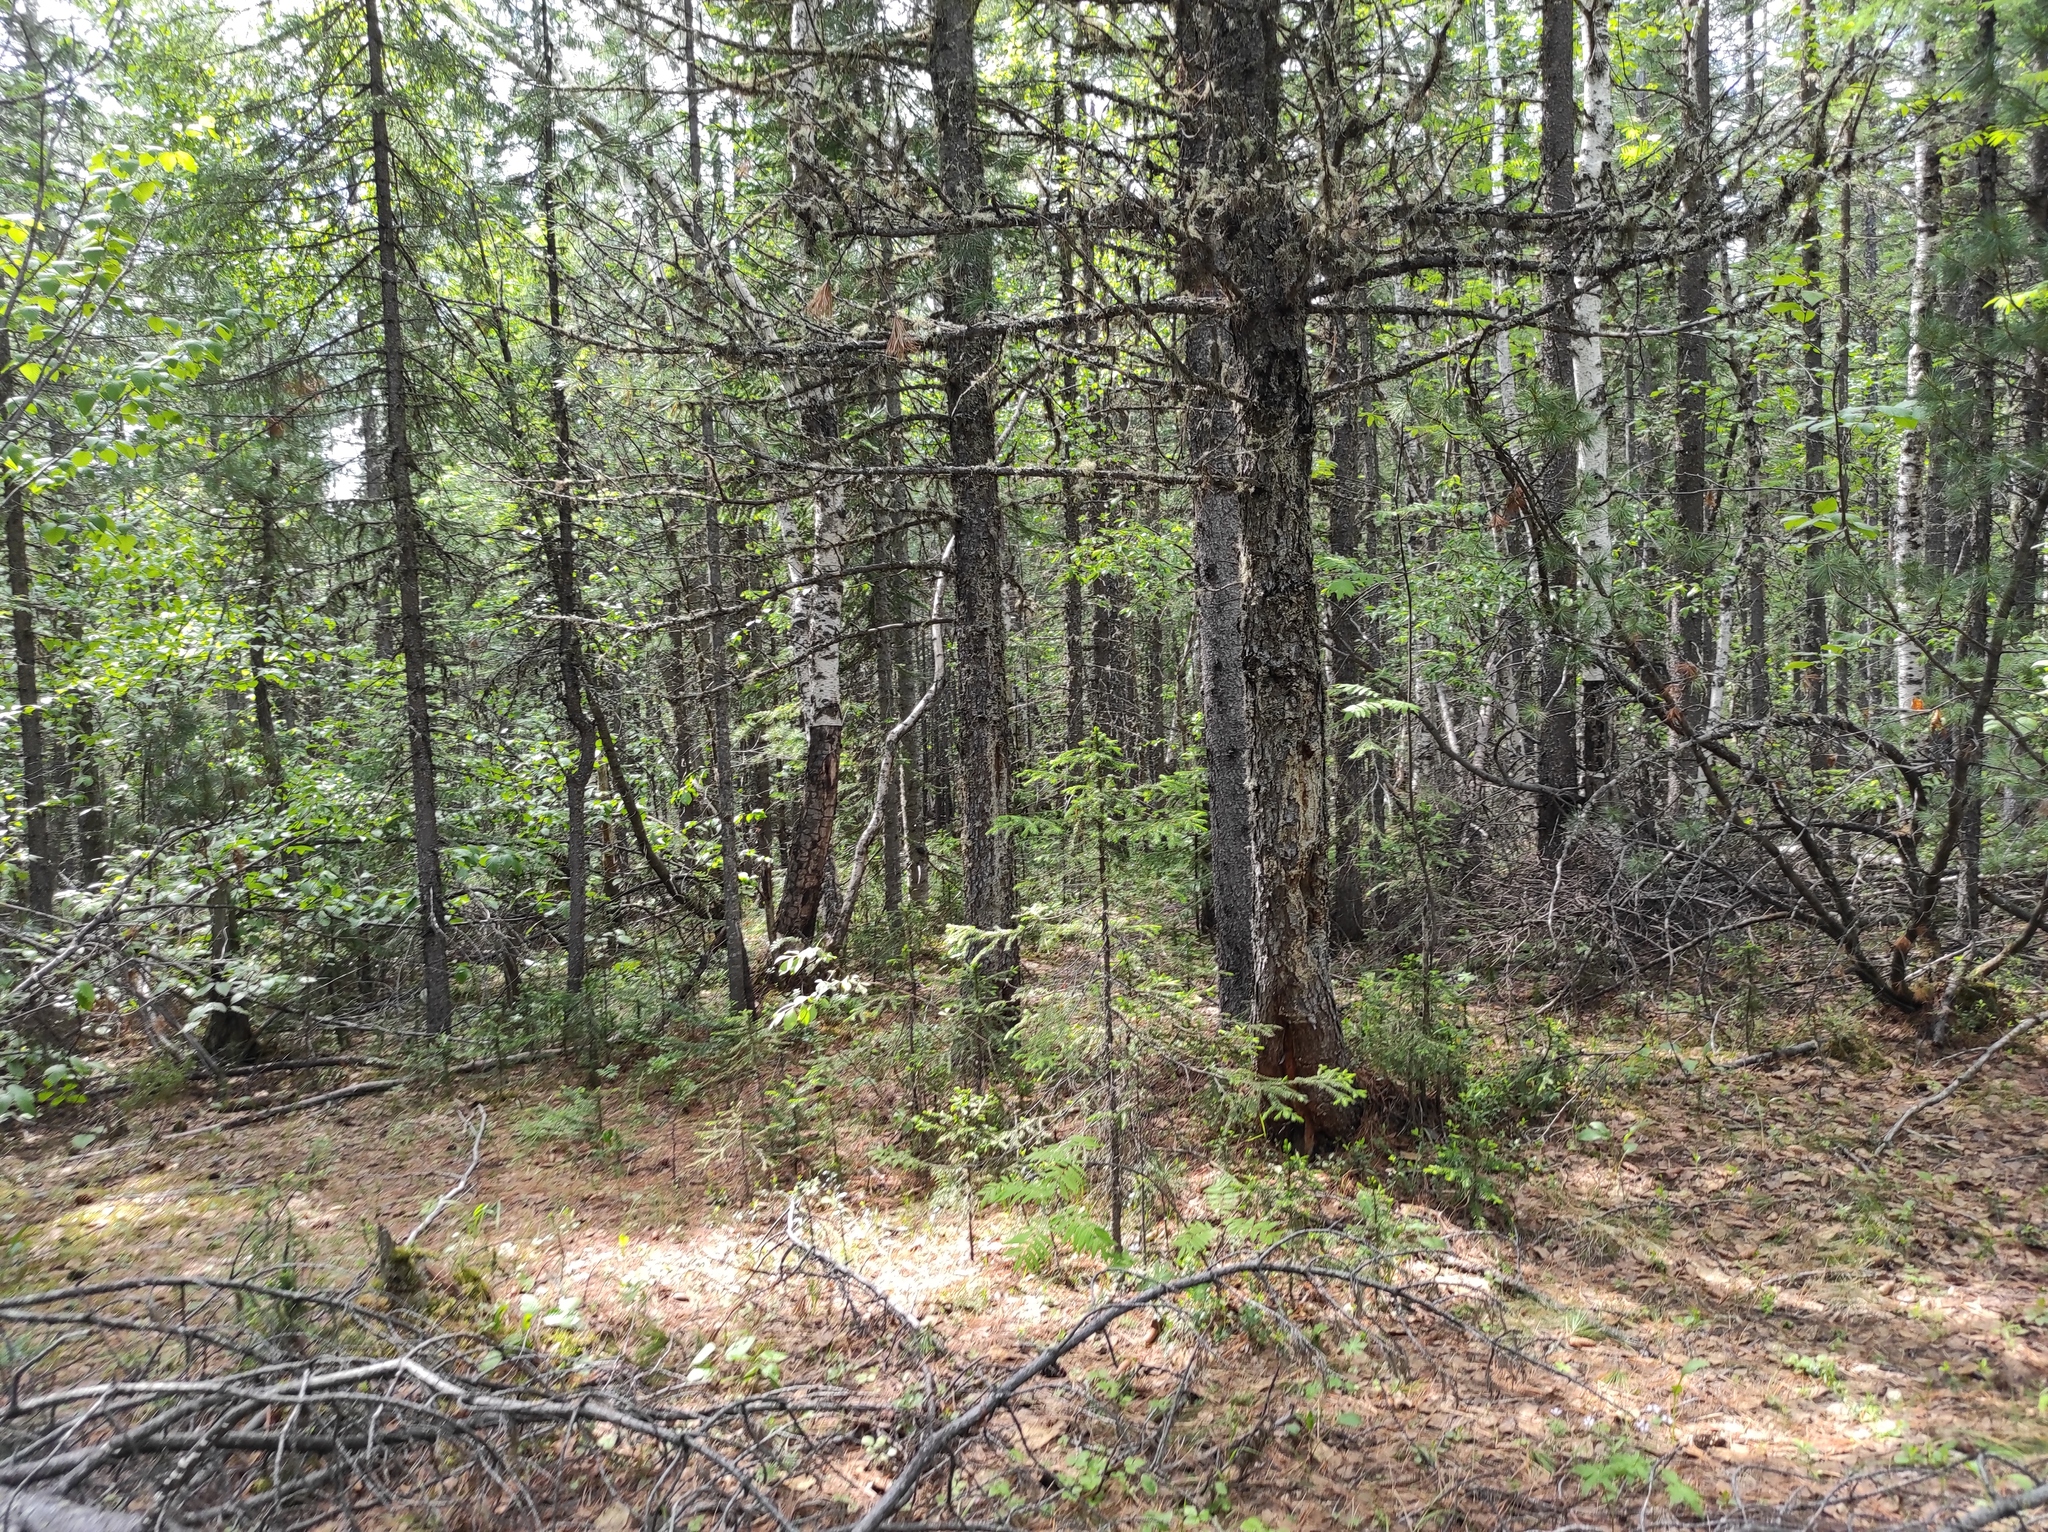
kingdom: Plantae
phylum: Tracheophyta
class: Lycopodiopsida
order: Lycopodiales
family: Lycopodiaceae
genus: Diphasiastrum
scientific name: Diphasiastrum complanatum
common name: Northern running-pine
